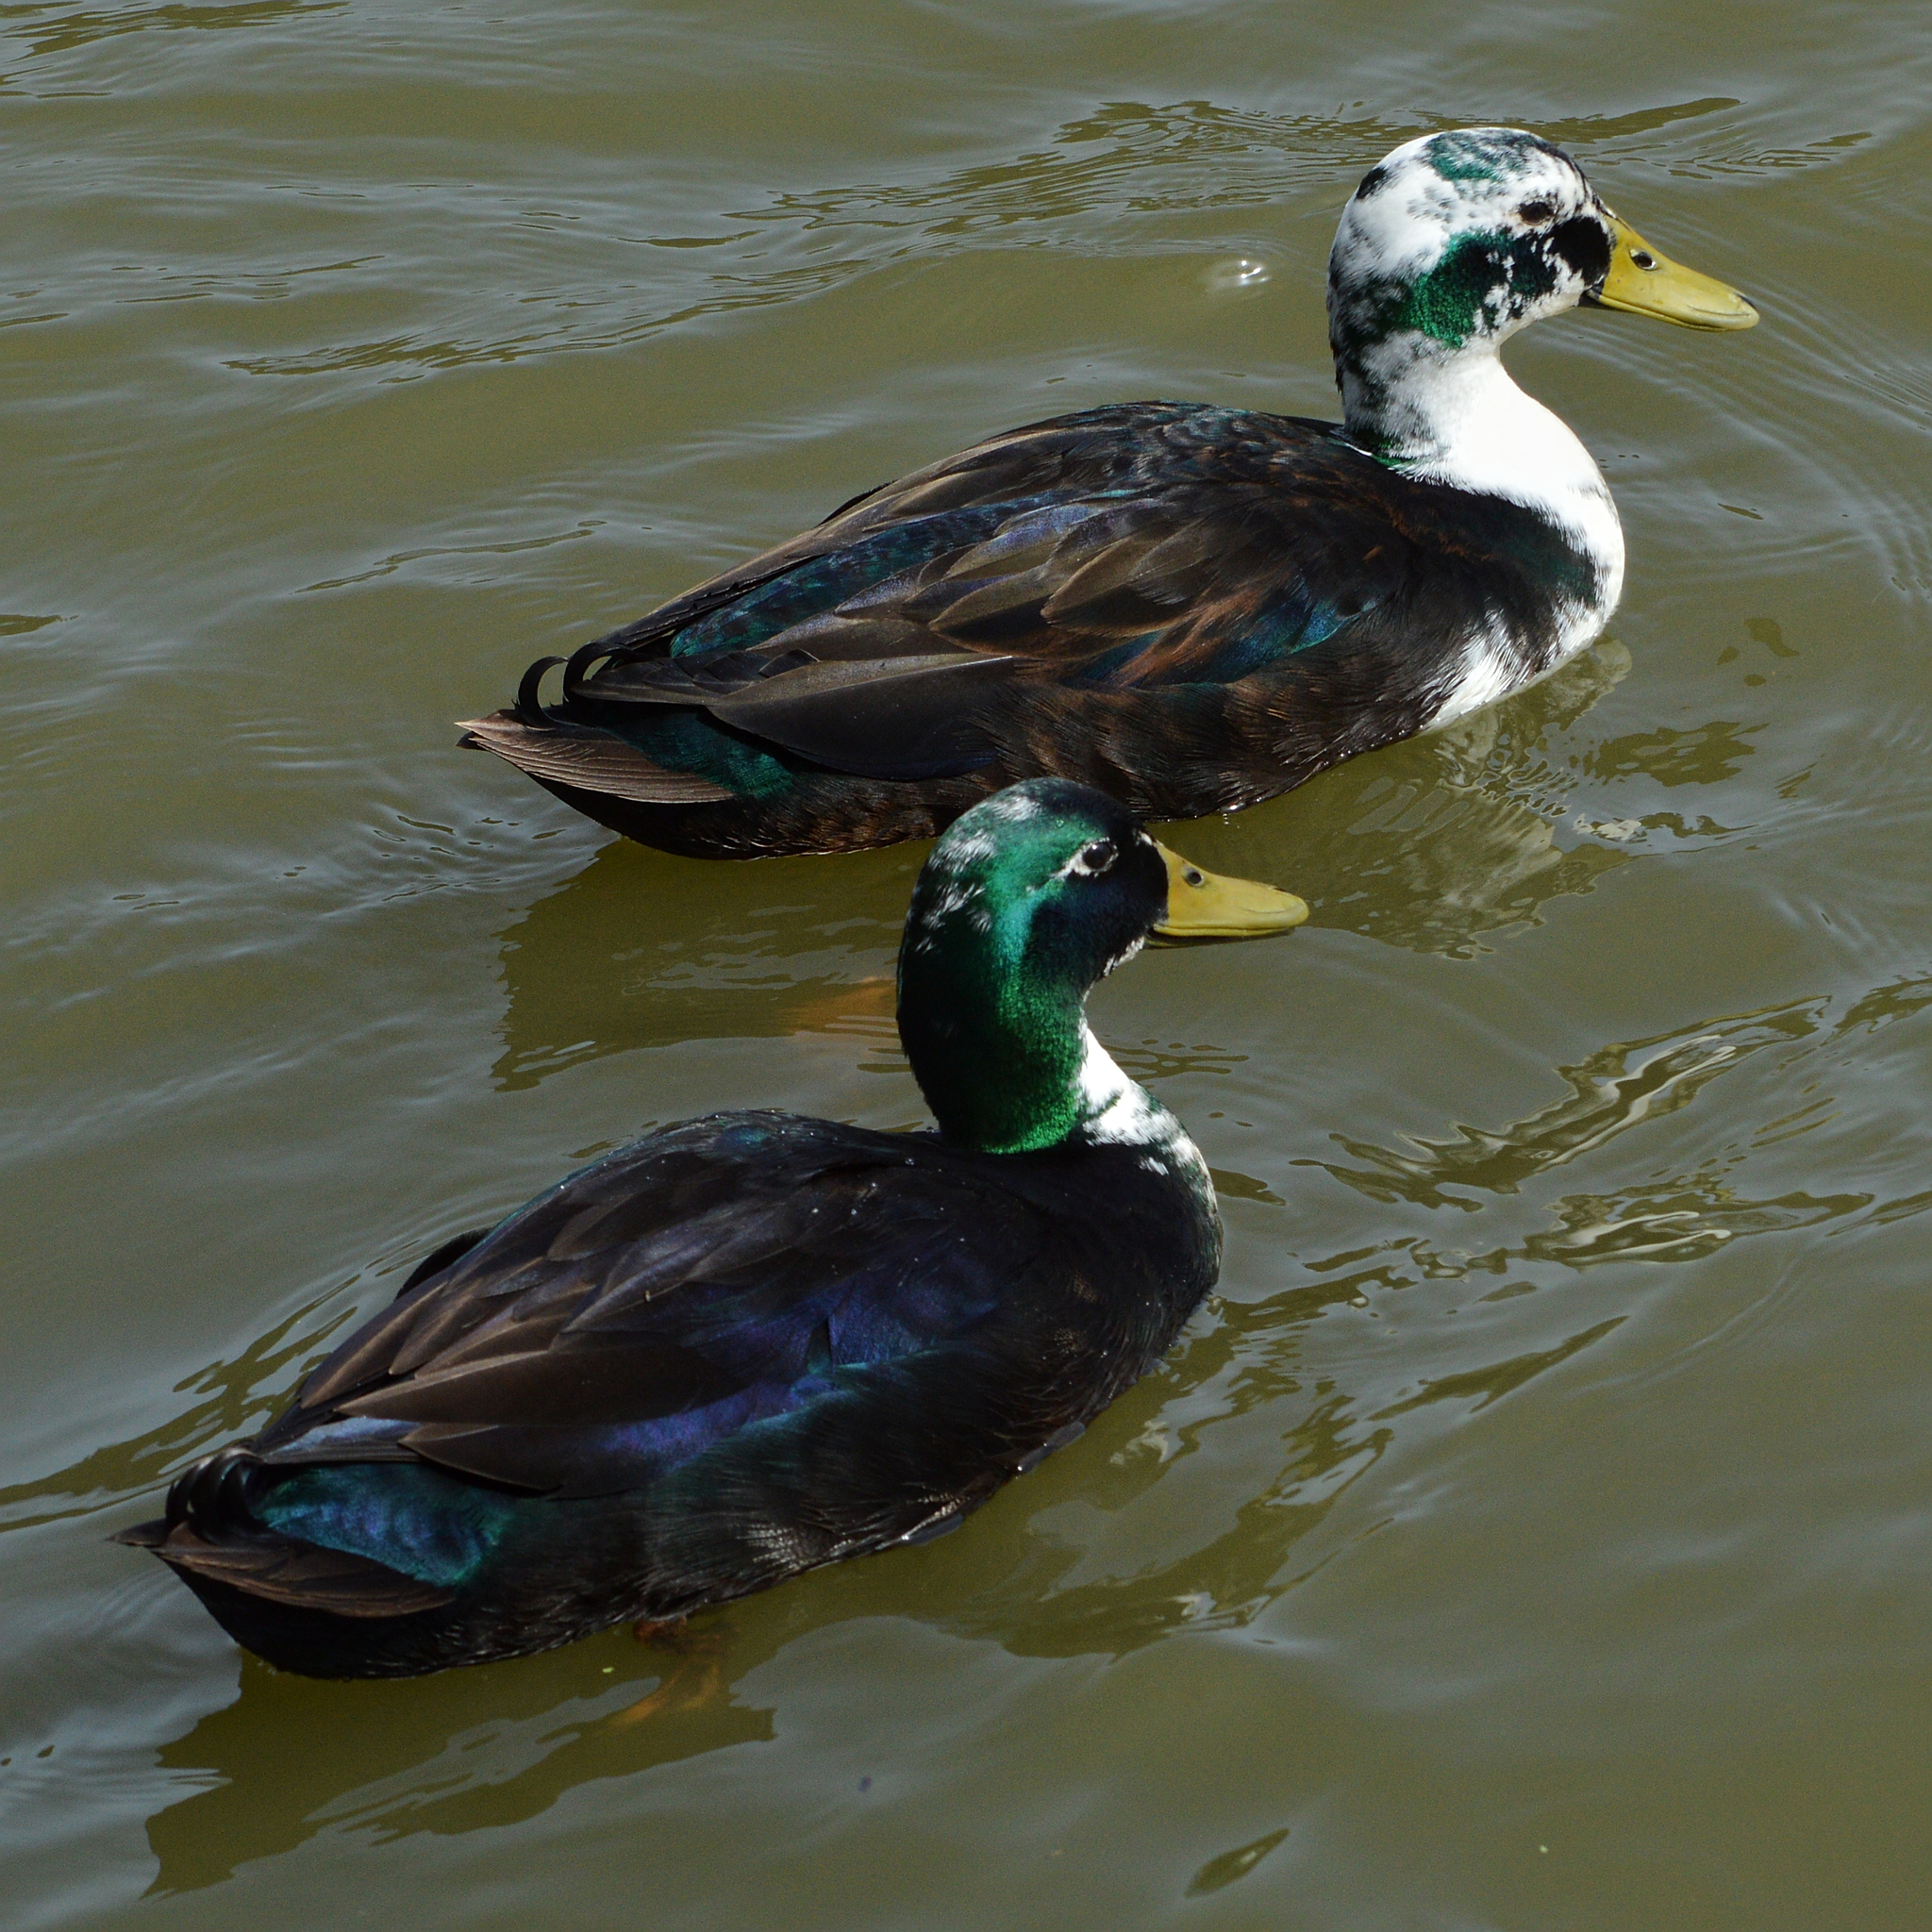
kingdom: Animalia
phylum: Chordata
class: Aves
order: Anseriformes
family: Anatidae
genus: Anas
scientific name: Anas platyrhynchos
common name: Mallard
